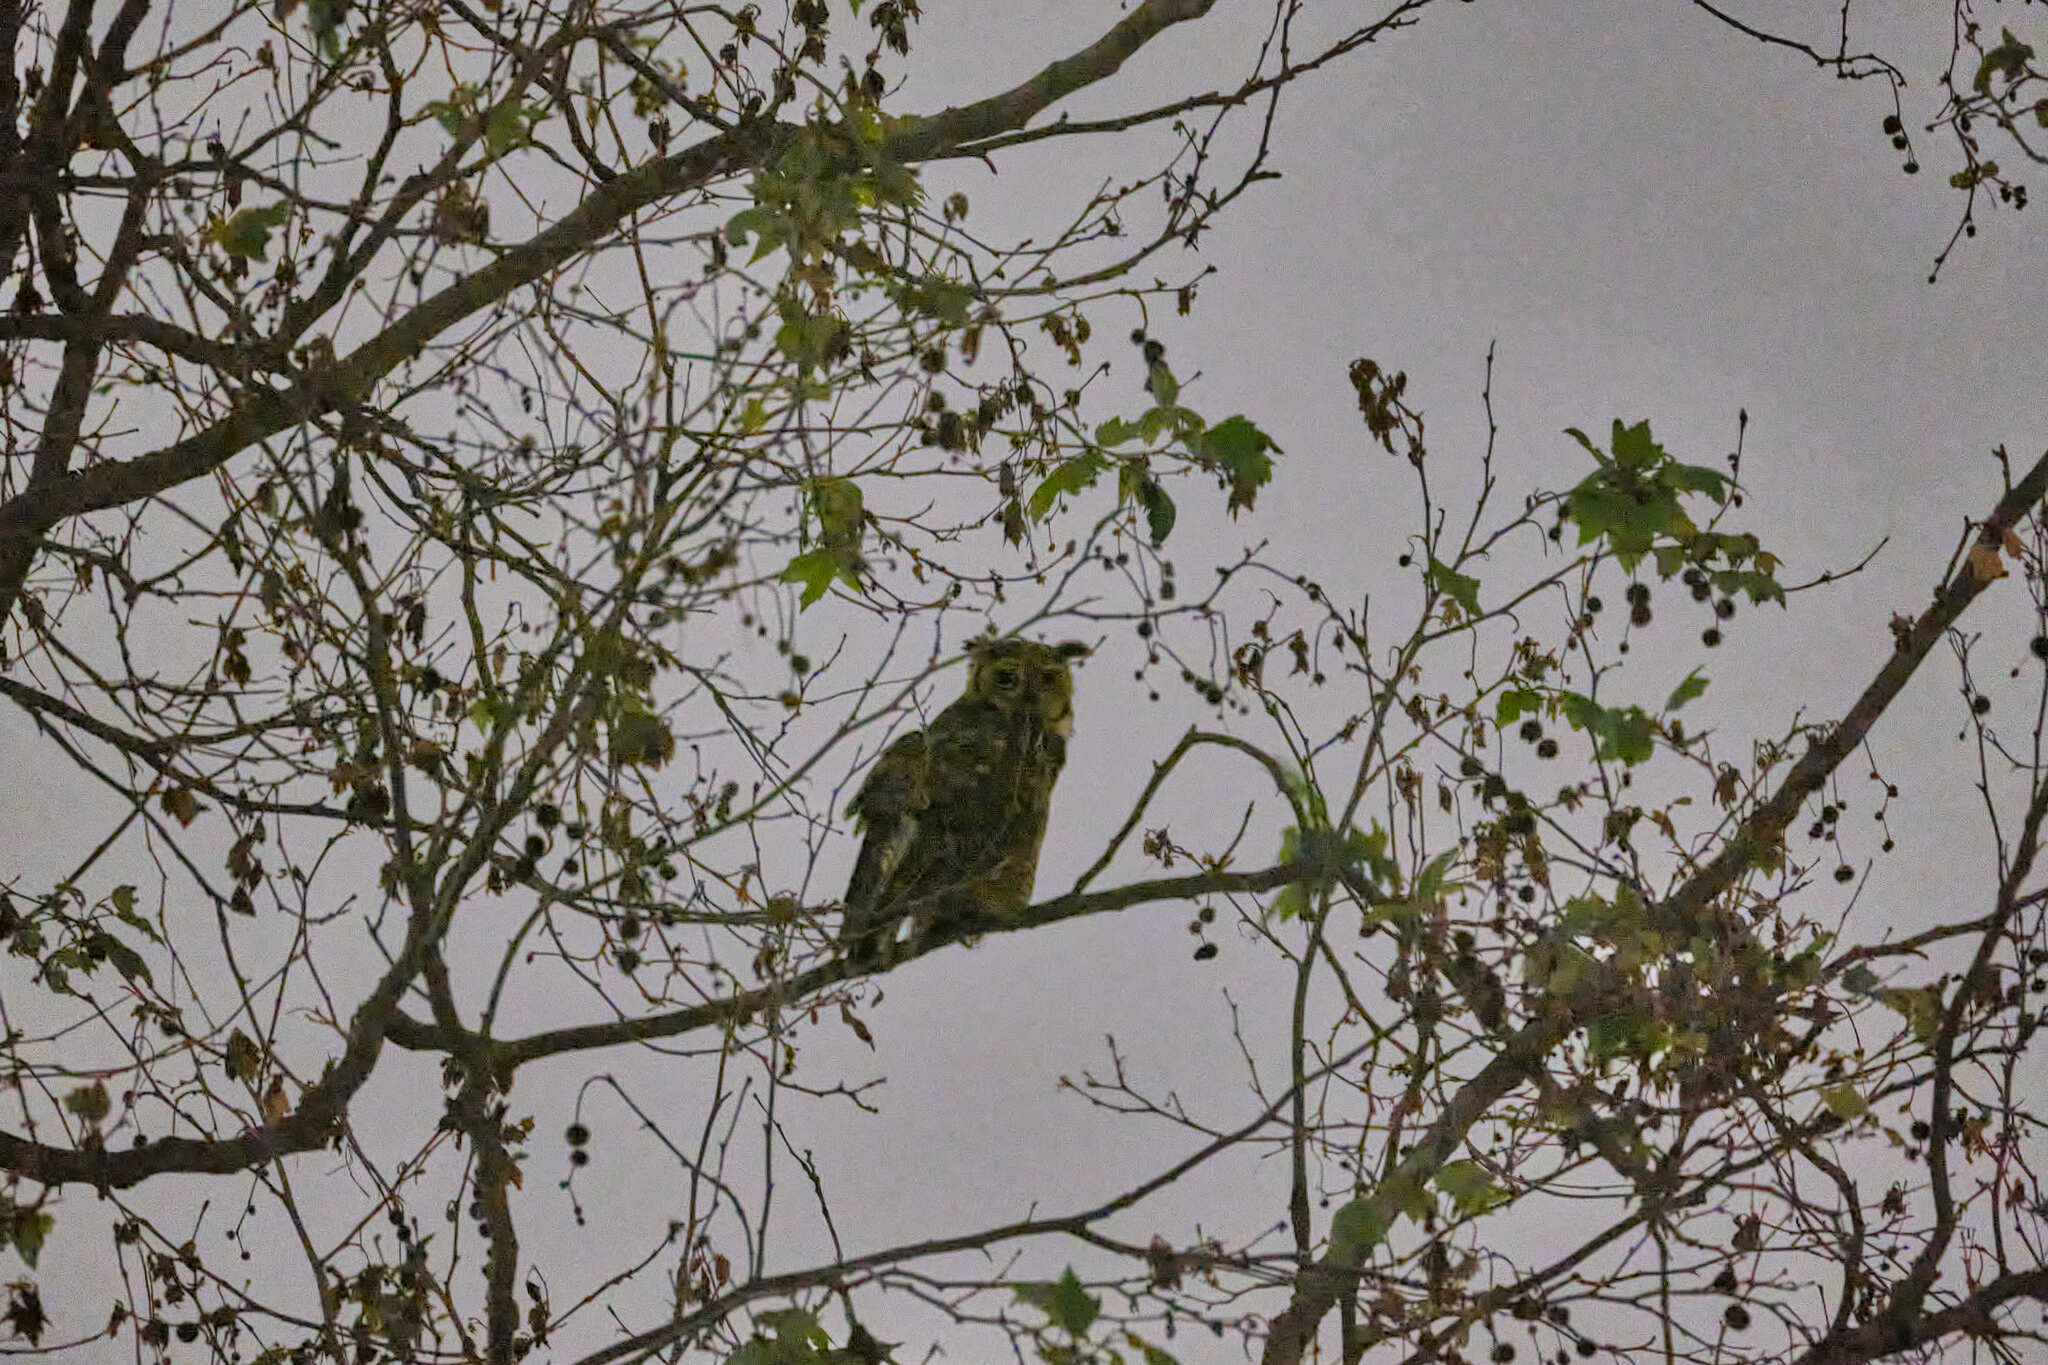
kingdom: Animalia
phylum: Chordata
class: Aves
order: Strigiformes
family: Strigidae
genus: Bubo
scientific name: Bubo virginianus
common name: Great horned owl
